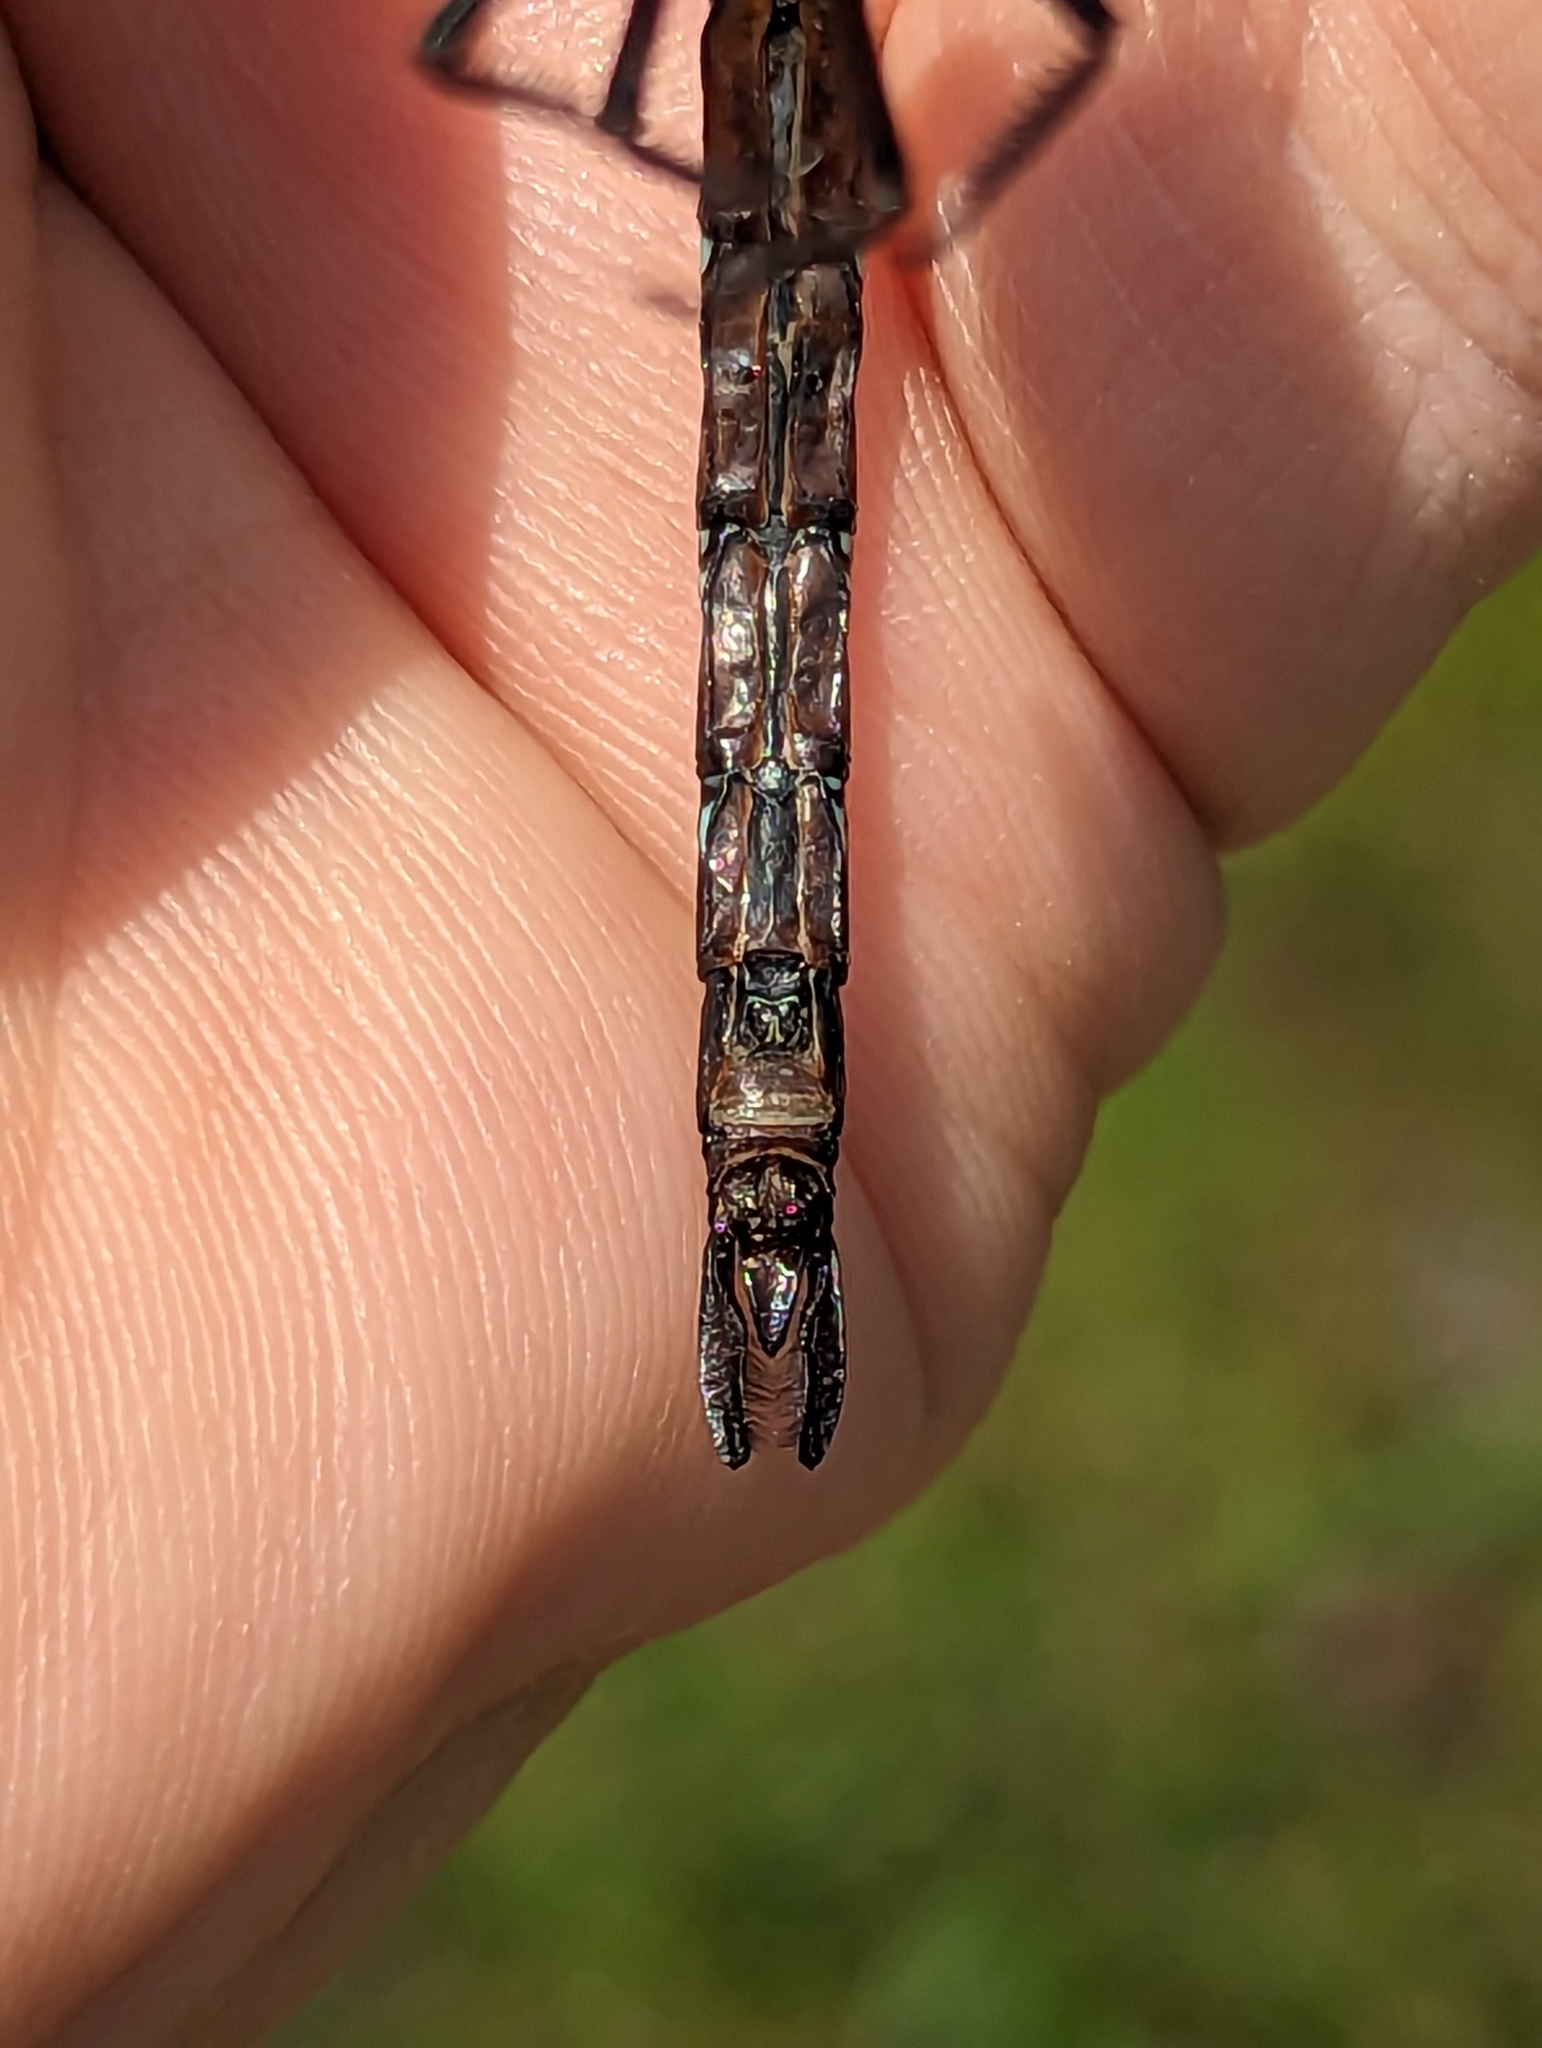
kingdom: Animalia
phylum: Arthropoda
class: Insecta
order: Odonata
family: Aeshnidae
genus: Aeshna
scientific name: Aeshna tuberculifera
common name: Aeschne à tubercules
